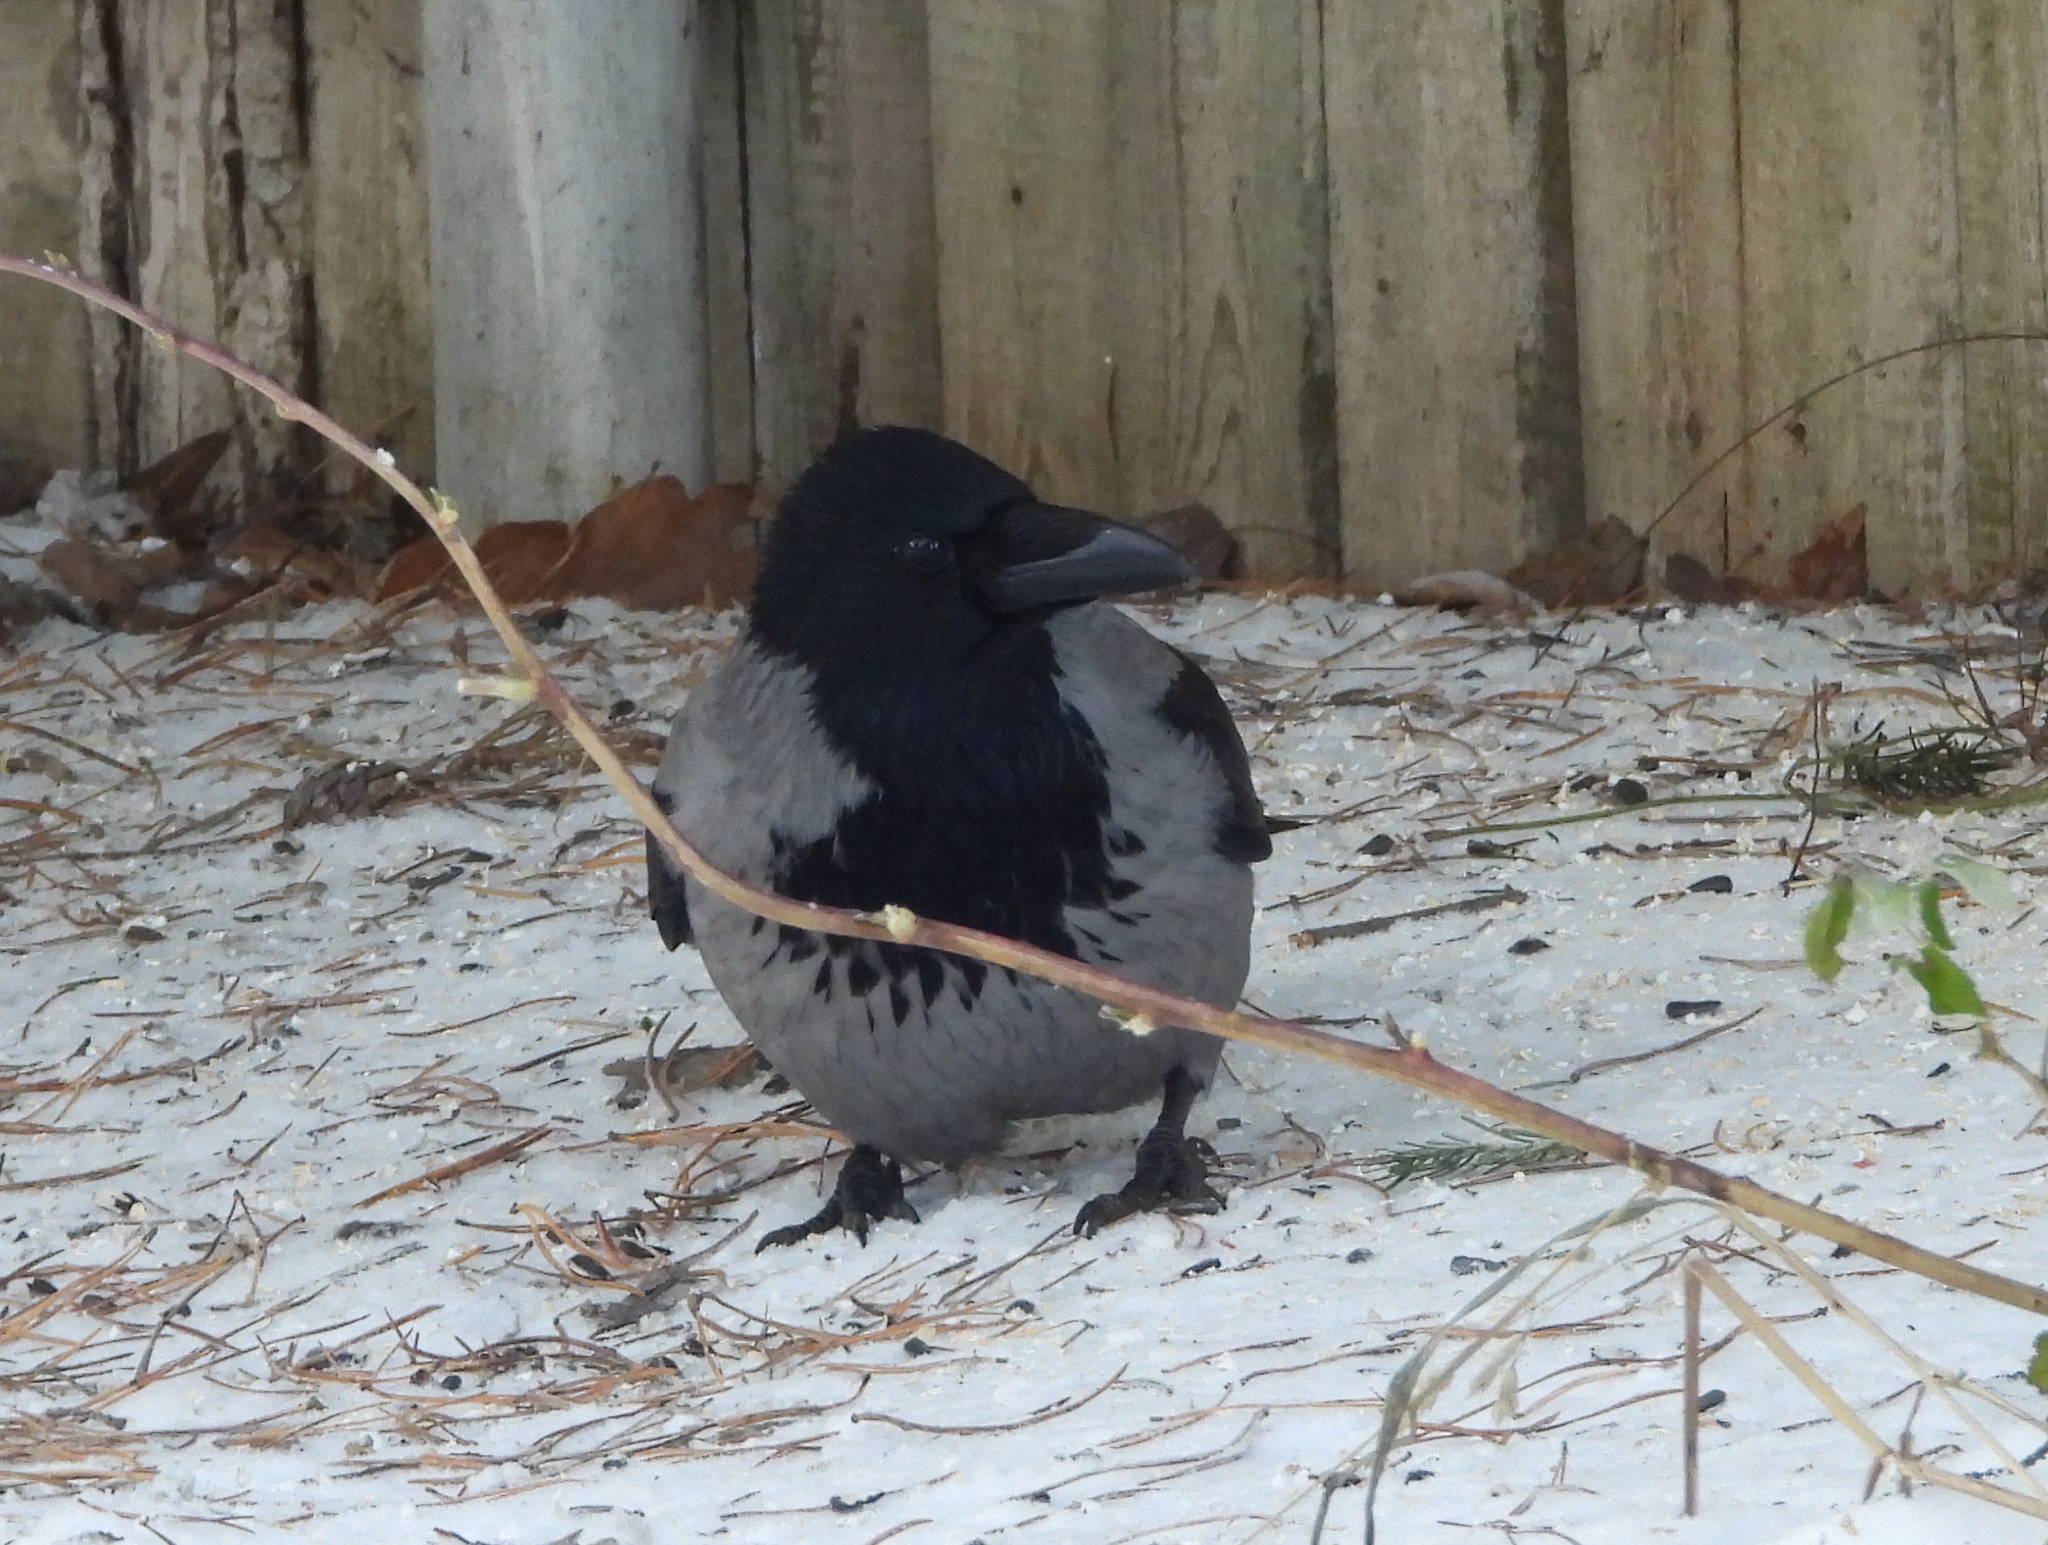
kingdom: Animalia
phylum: Chordata
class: Aves
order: Passeriformes
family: Corvidae
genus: Corvus
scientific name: Corvus cornix
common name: Hooded crow
